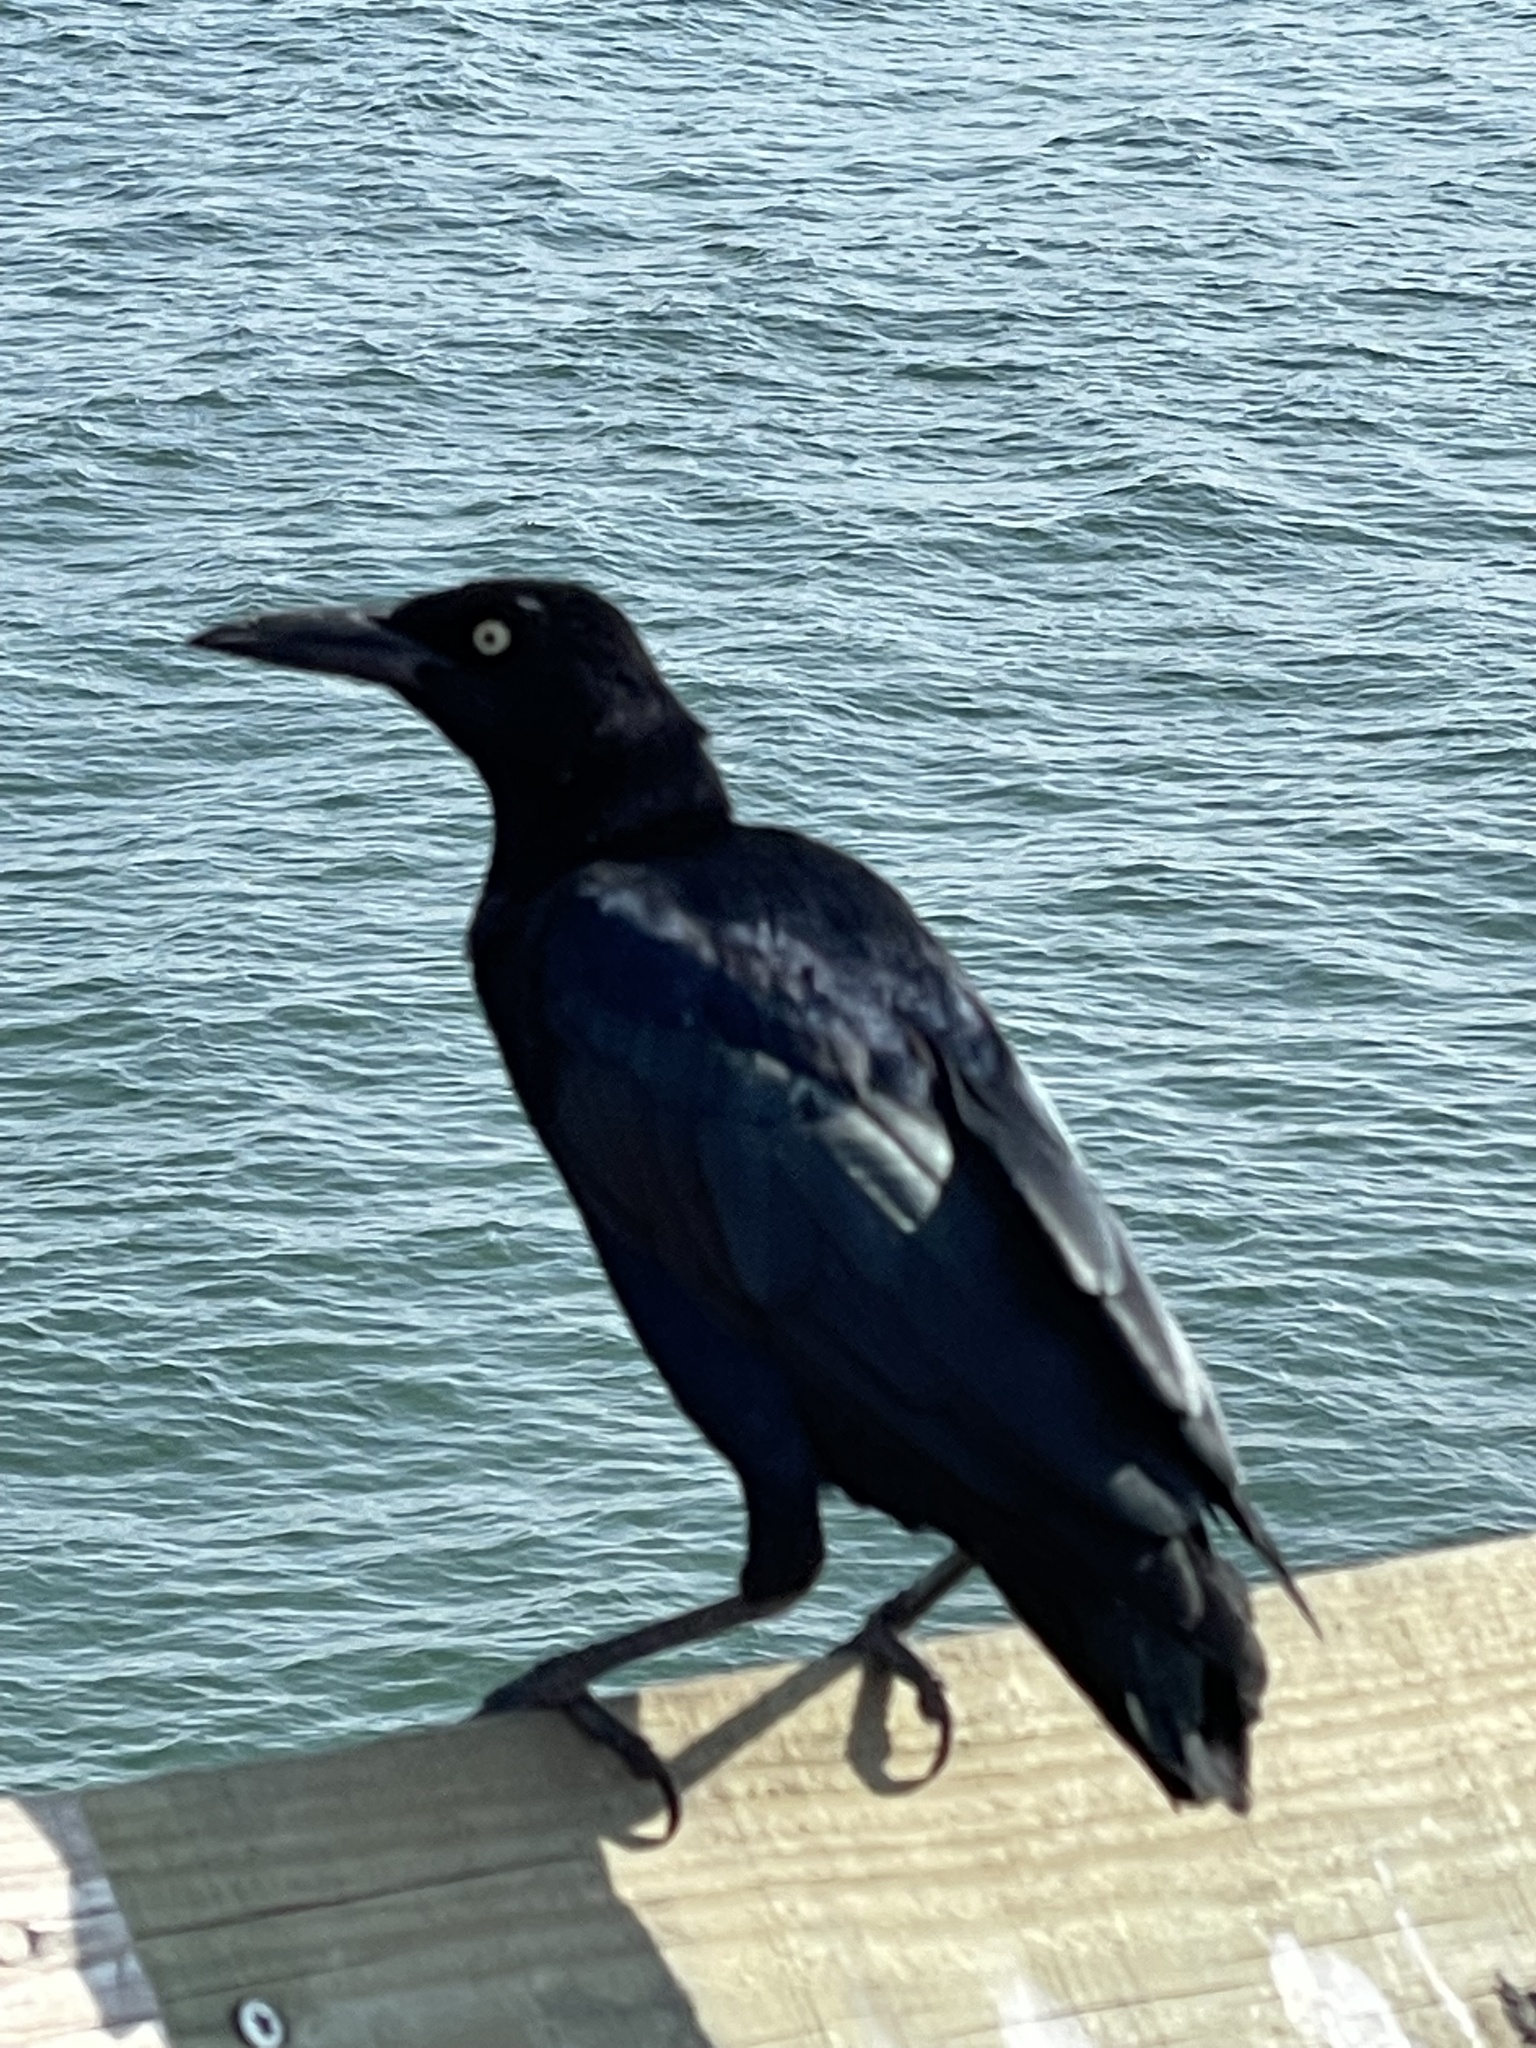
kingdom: Animalia
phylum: Chordata
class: Aves
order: Passeriformes
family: Icteridae
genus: Quiscalus
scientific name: Quiscalus mexicanus
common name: Great-tailed grackle
